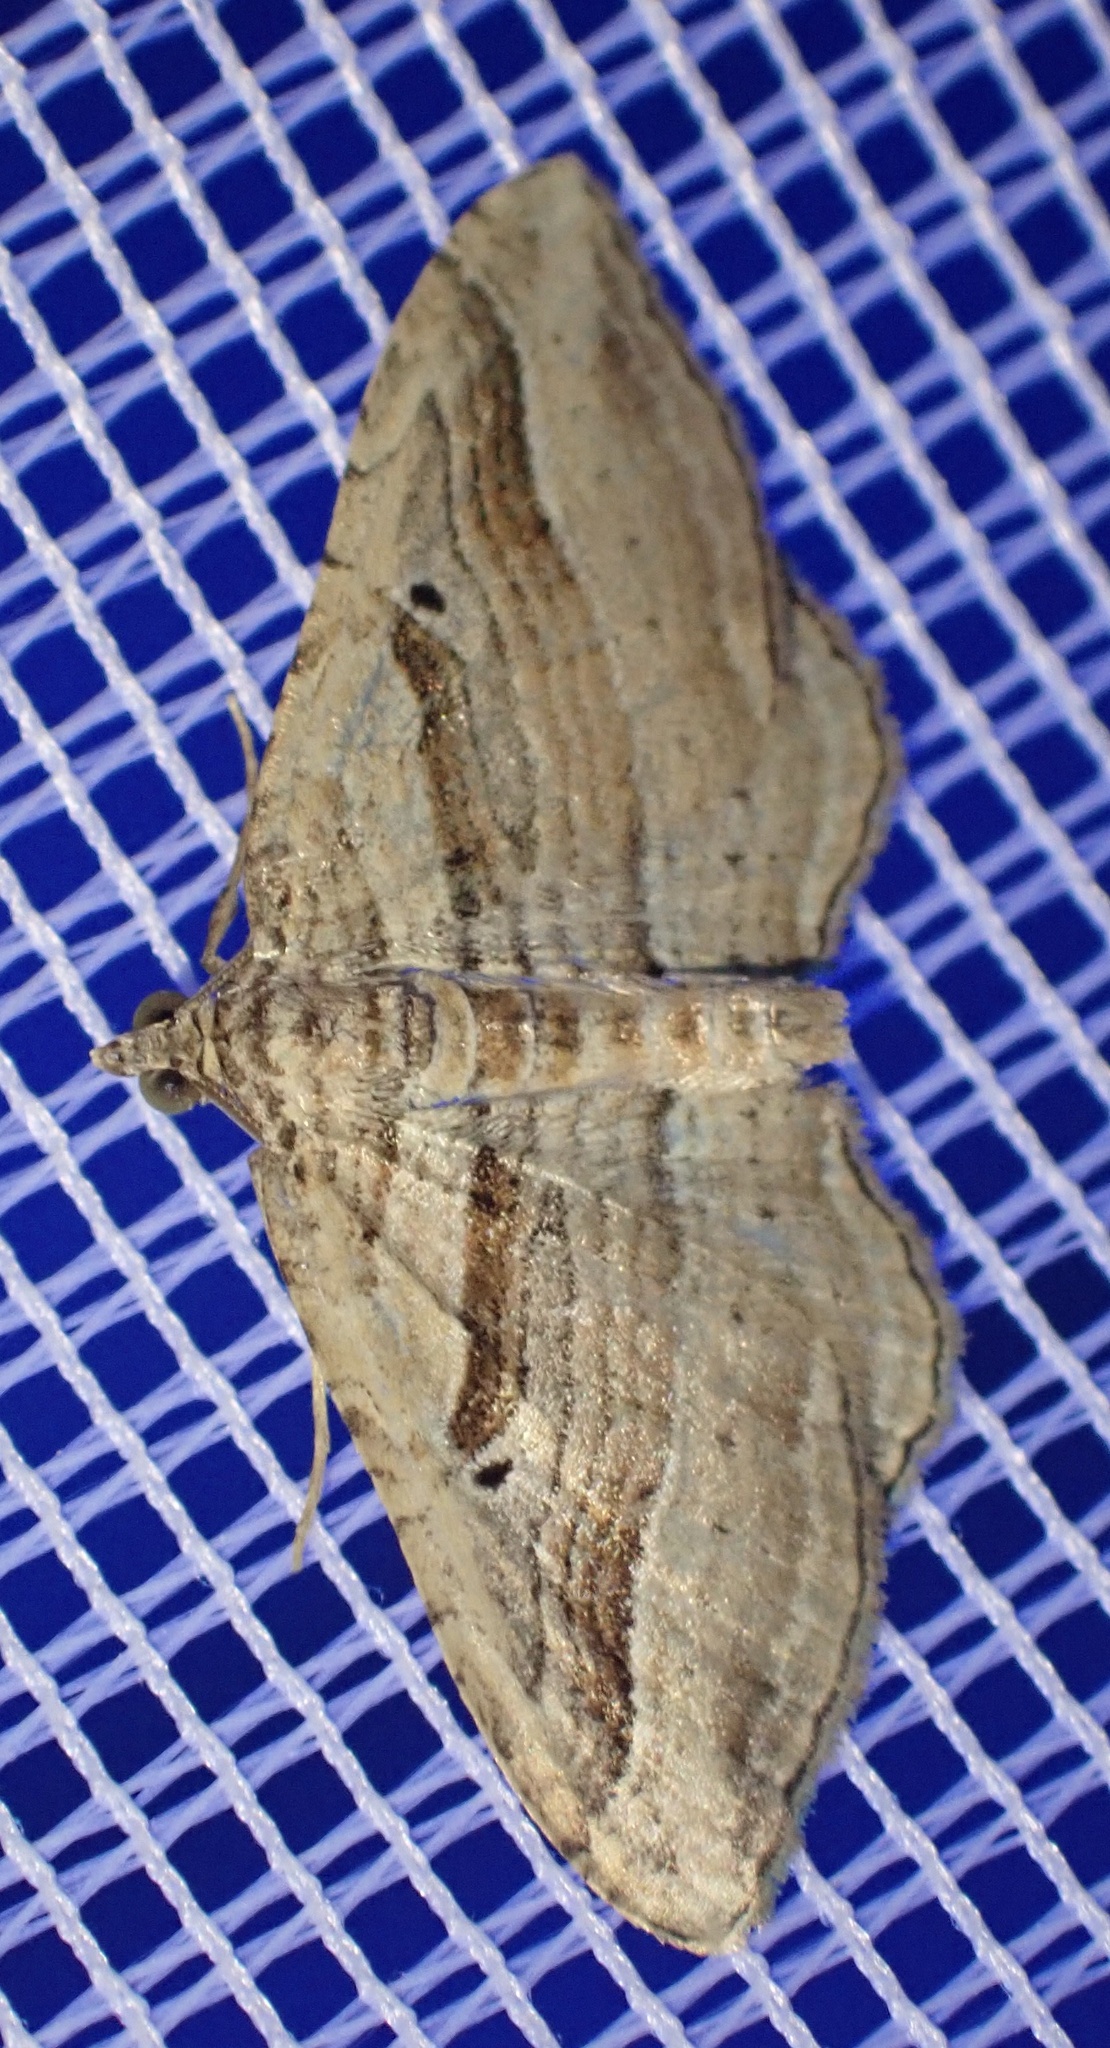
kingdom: Animalia
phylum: Arthropoda
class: Insecta
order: Lepidoptera
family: Geometridae
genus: Costaconvexa
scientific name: Costaconvexa polygrammata
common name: Many-lined
